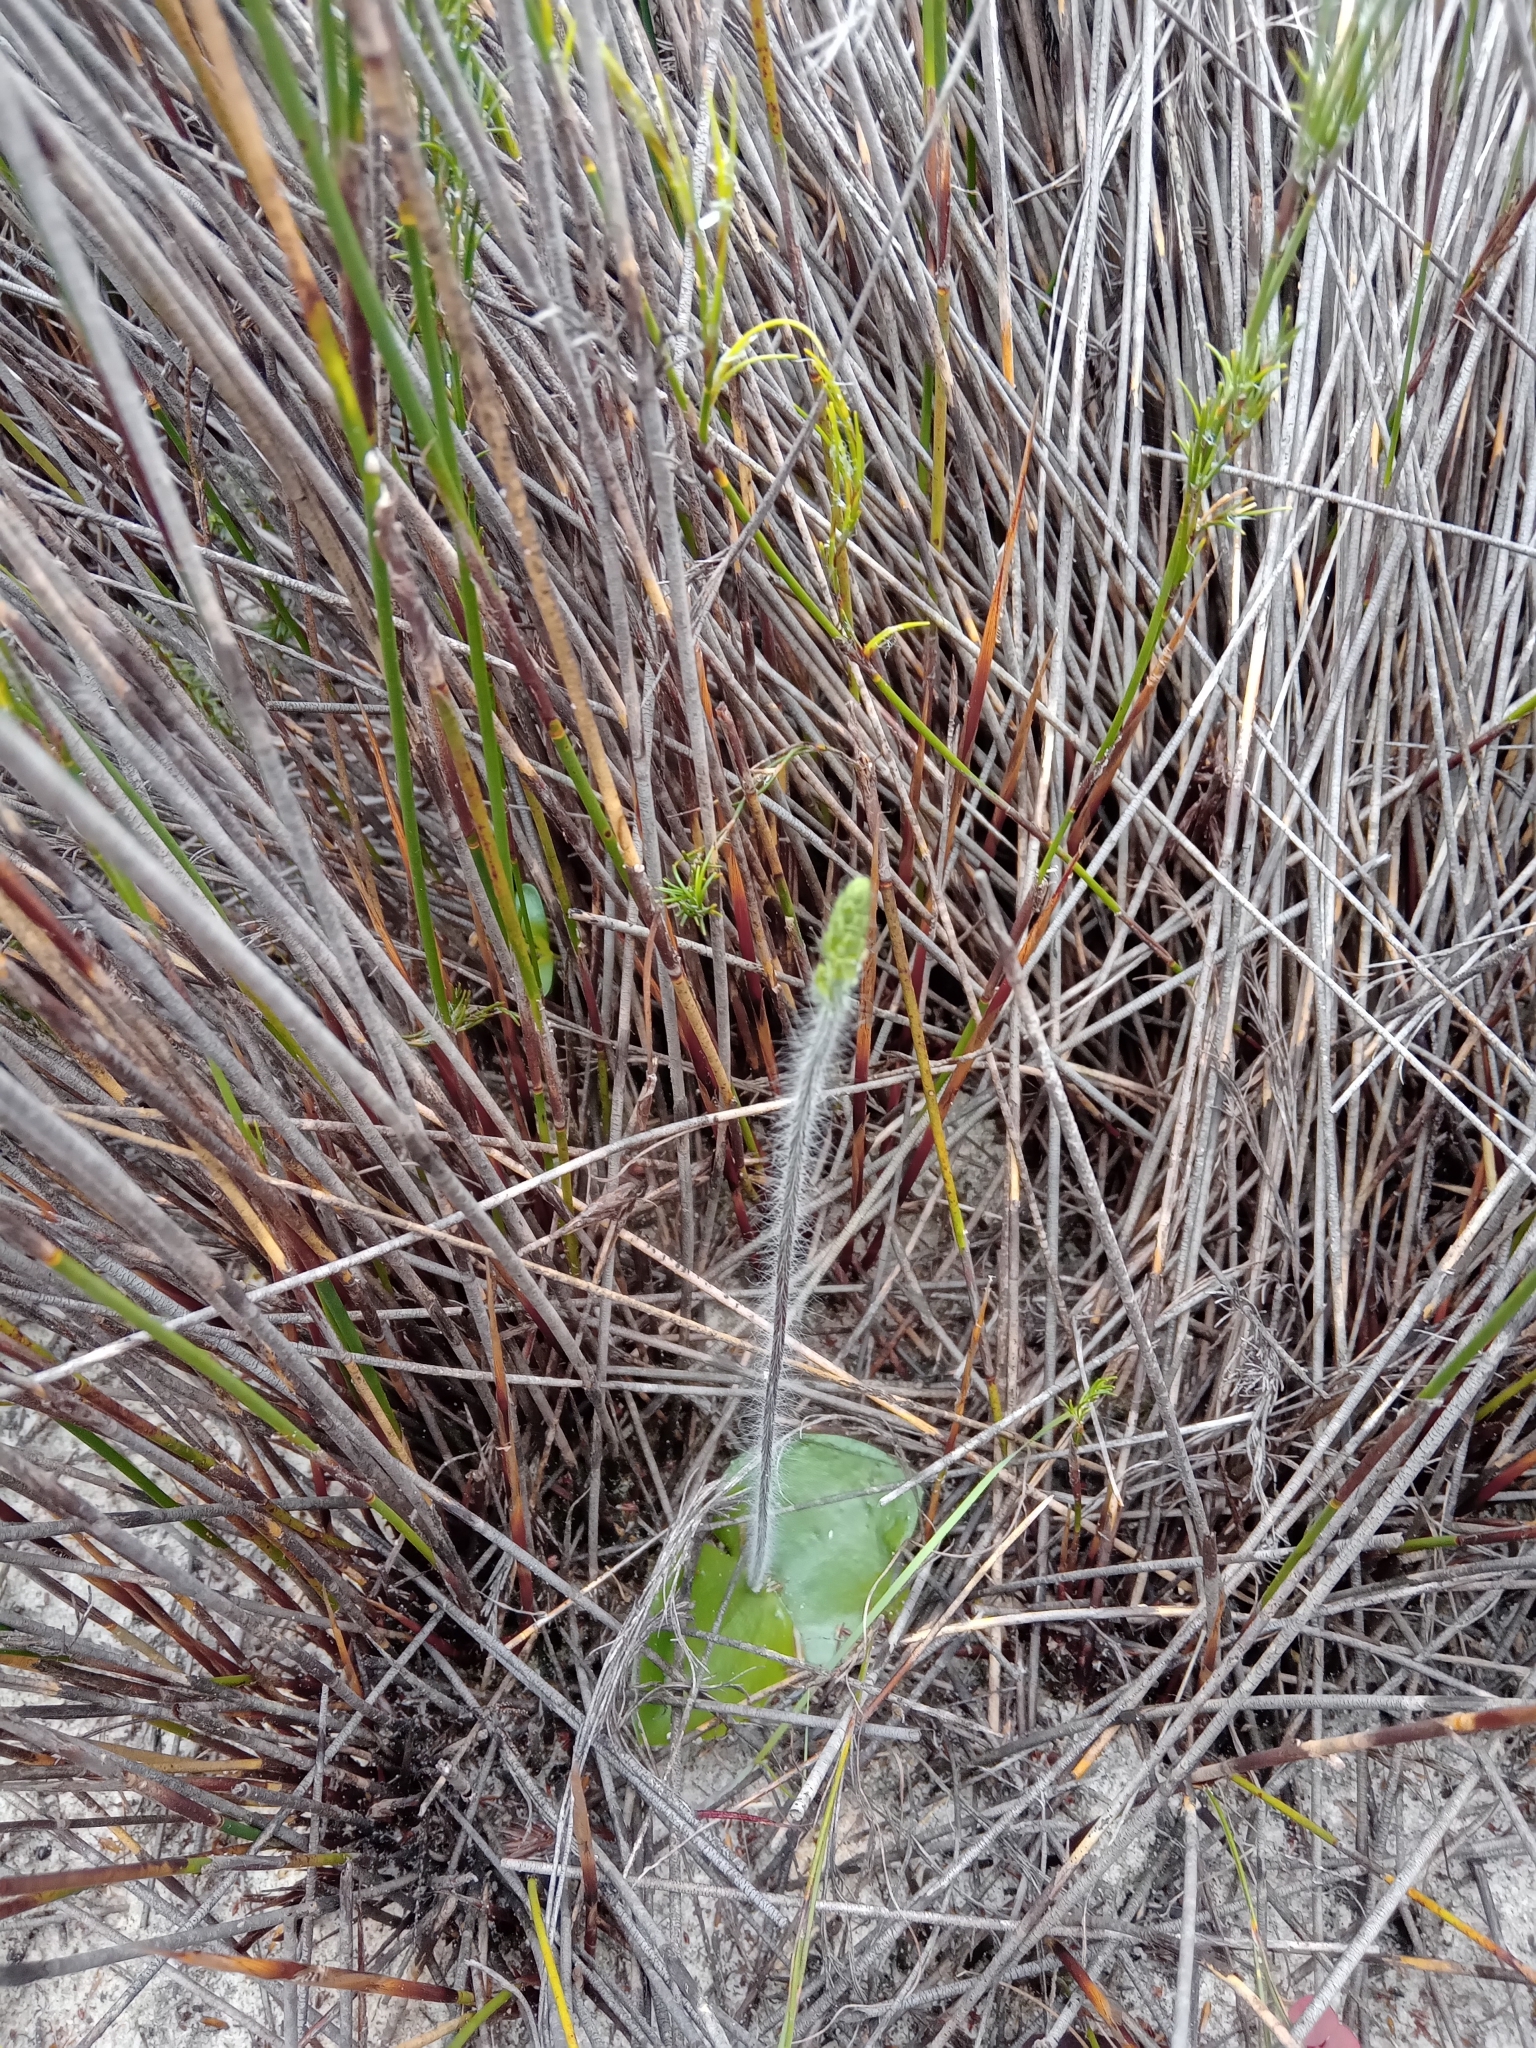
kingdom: Plantae
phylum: Tracheophyta
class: Liliopsida
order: Asparagales
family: Orchidaceae
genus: Holothrix
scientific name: Holothrix villosa
